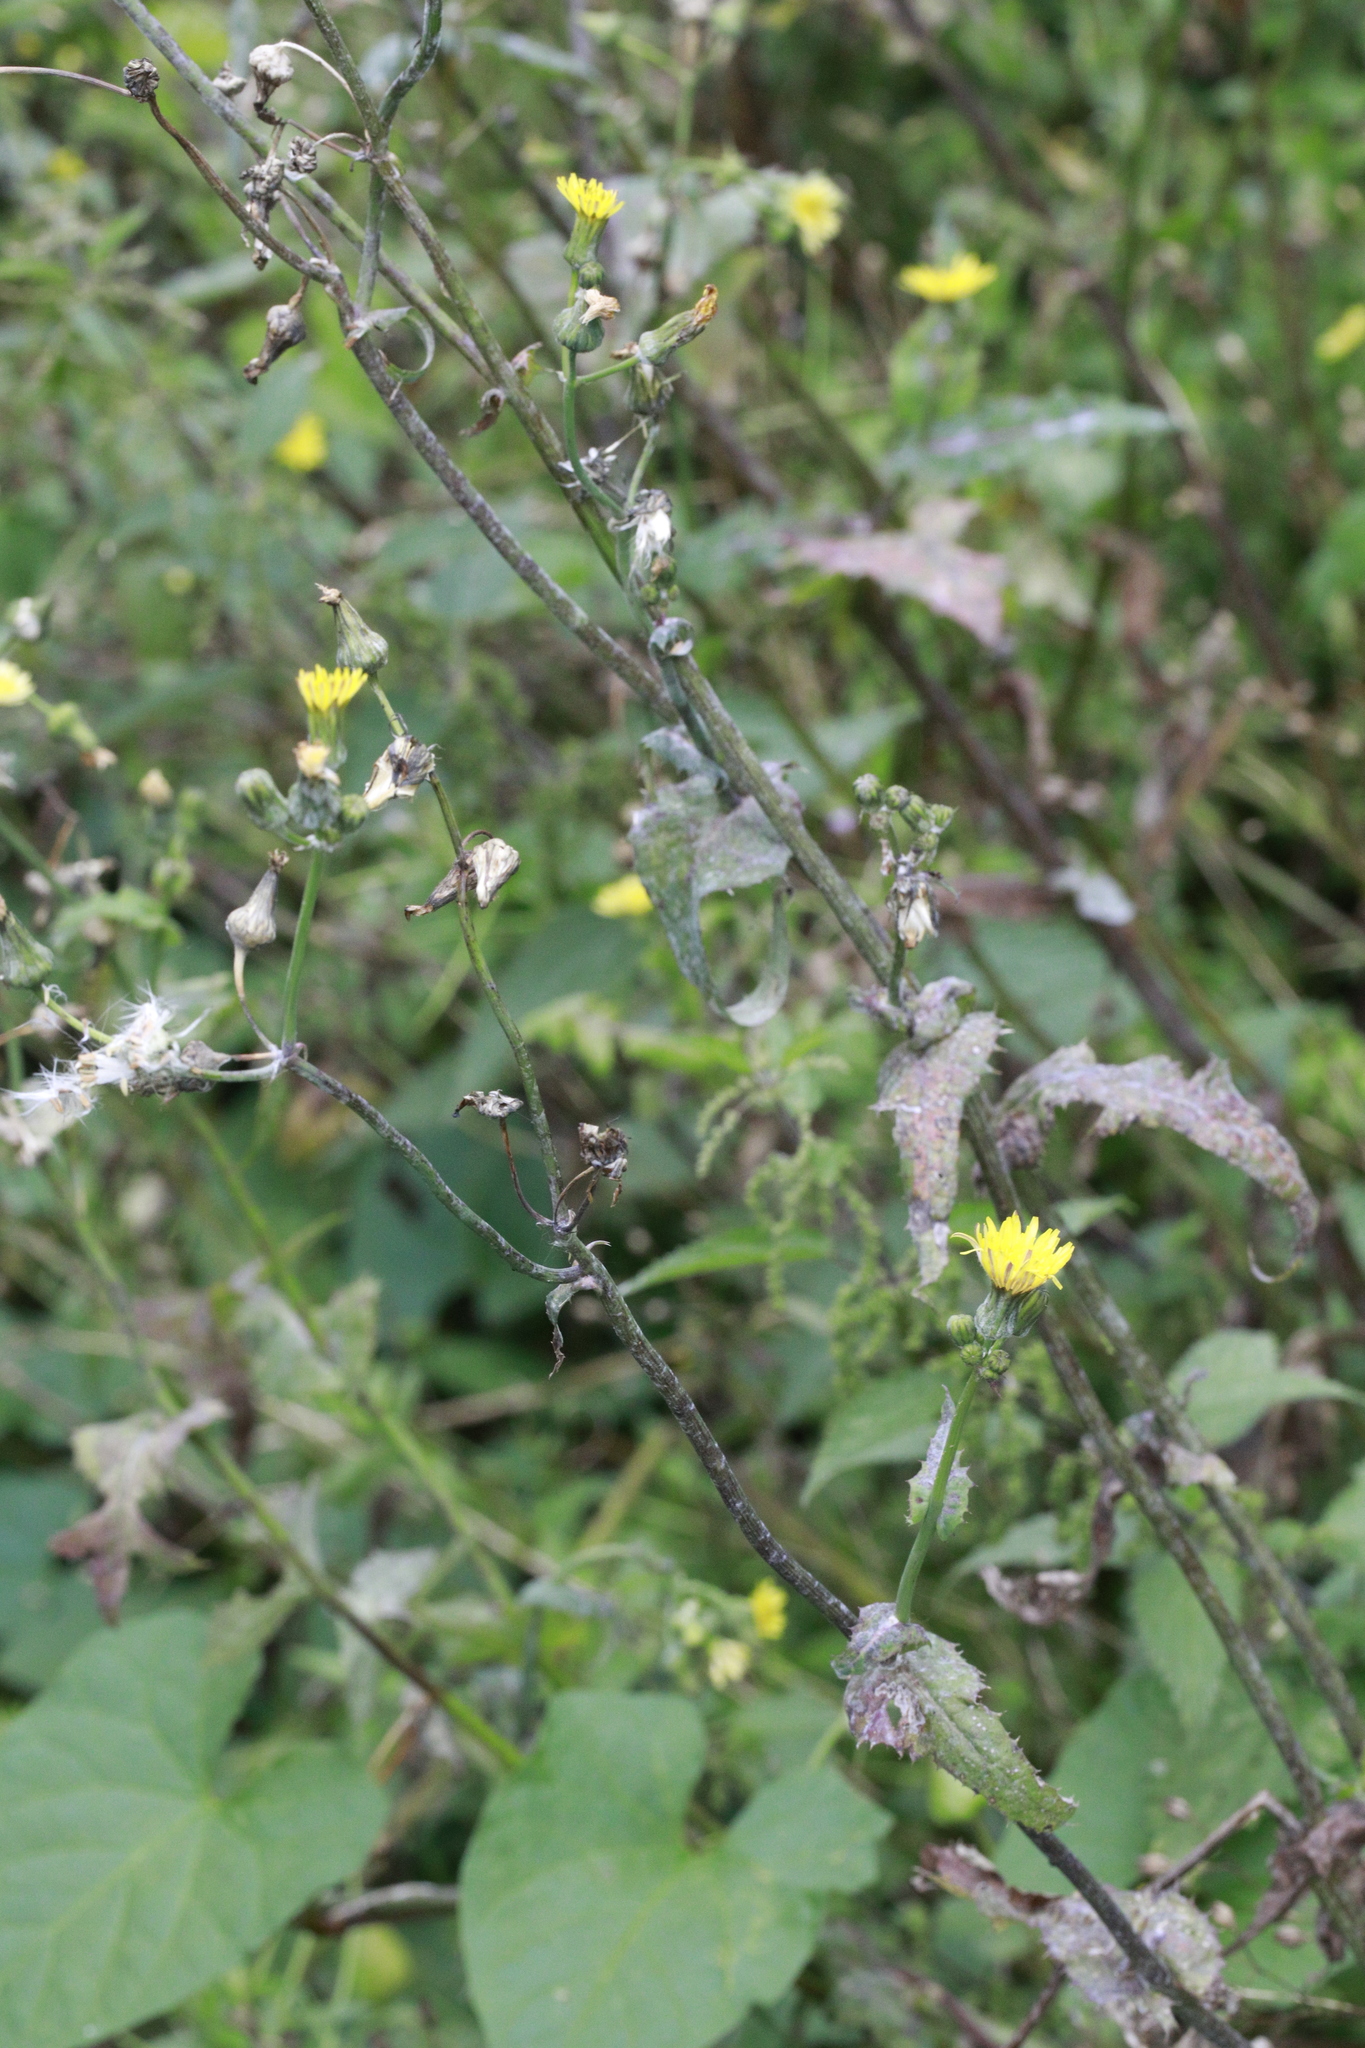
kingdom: Fungi
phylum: Ascomycota
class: Leotiomycetes
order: Helotiales
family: Erysiphaceae
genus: Golovinomyces
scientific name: Golovinomyces sonchicola
